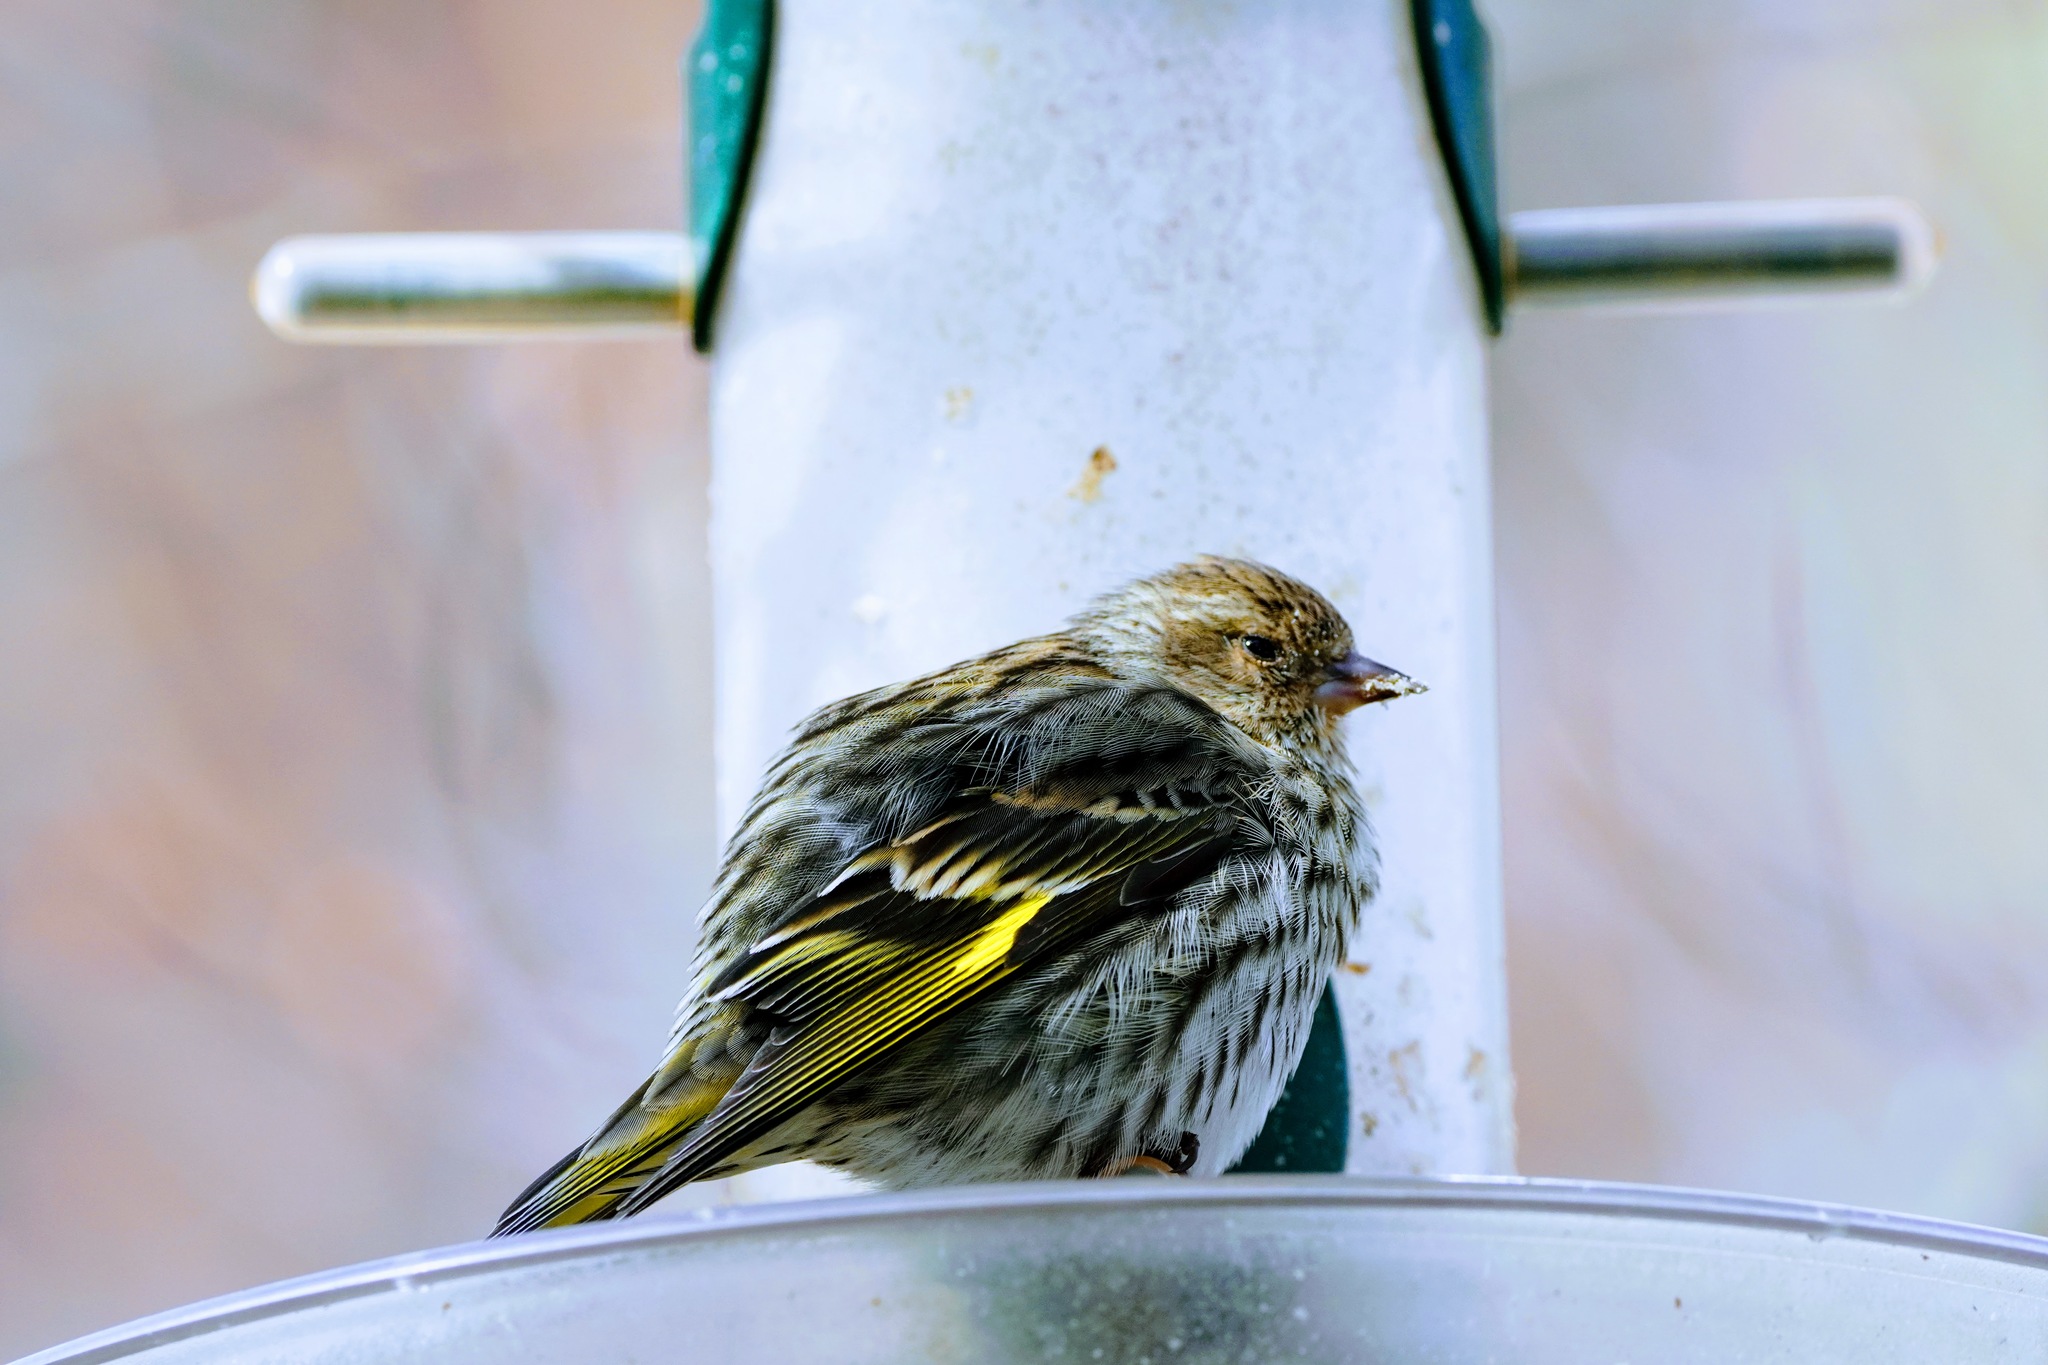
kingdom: Animalia
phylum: Chordata
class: Aves
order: Passeriformes
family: Fringillidae
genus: Spinus
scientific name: Spinus pinus
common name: Pine siskin
